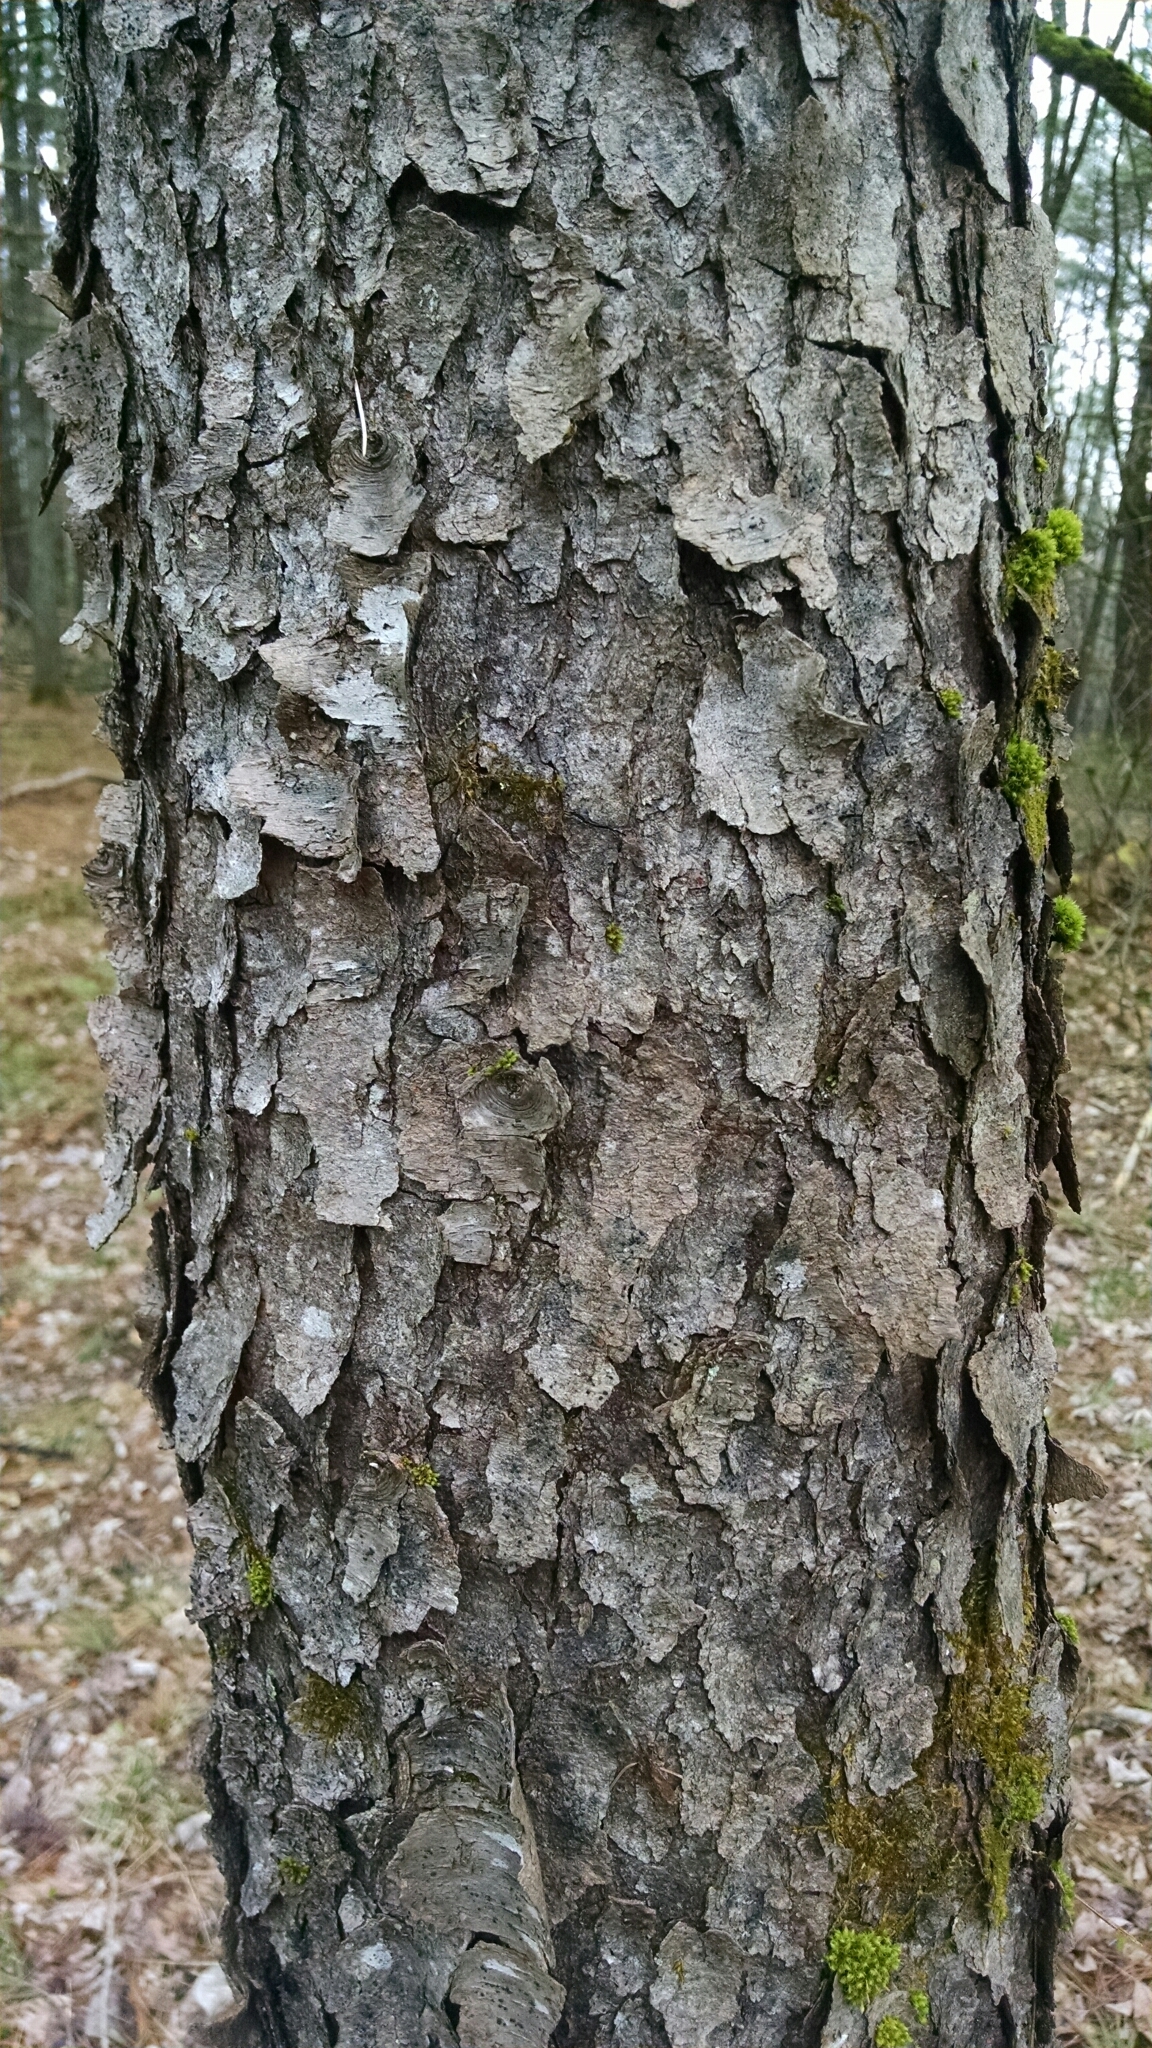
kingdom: Plantae
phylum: Tracheophyta
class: Magnoliopsida
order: Rosales
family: Rosaceae
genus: Prunus
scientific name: Prunus serotina
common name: Black cherry
